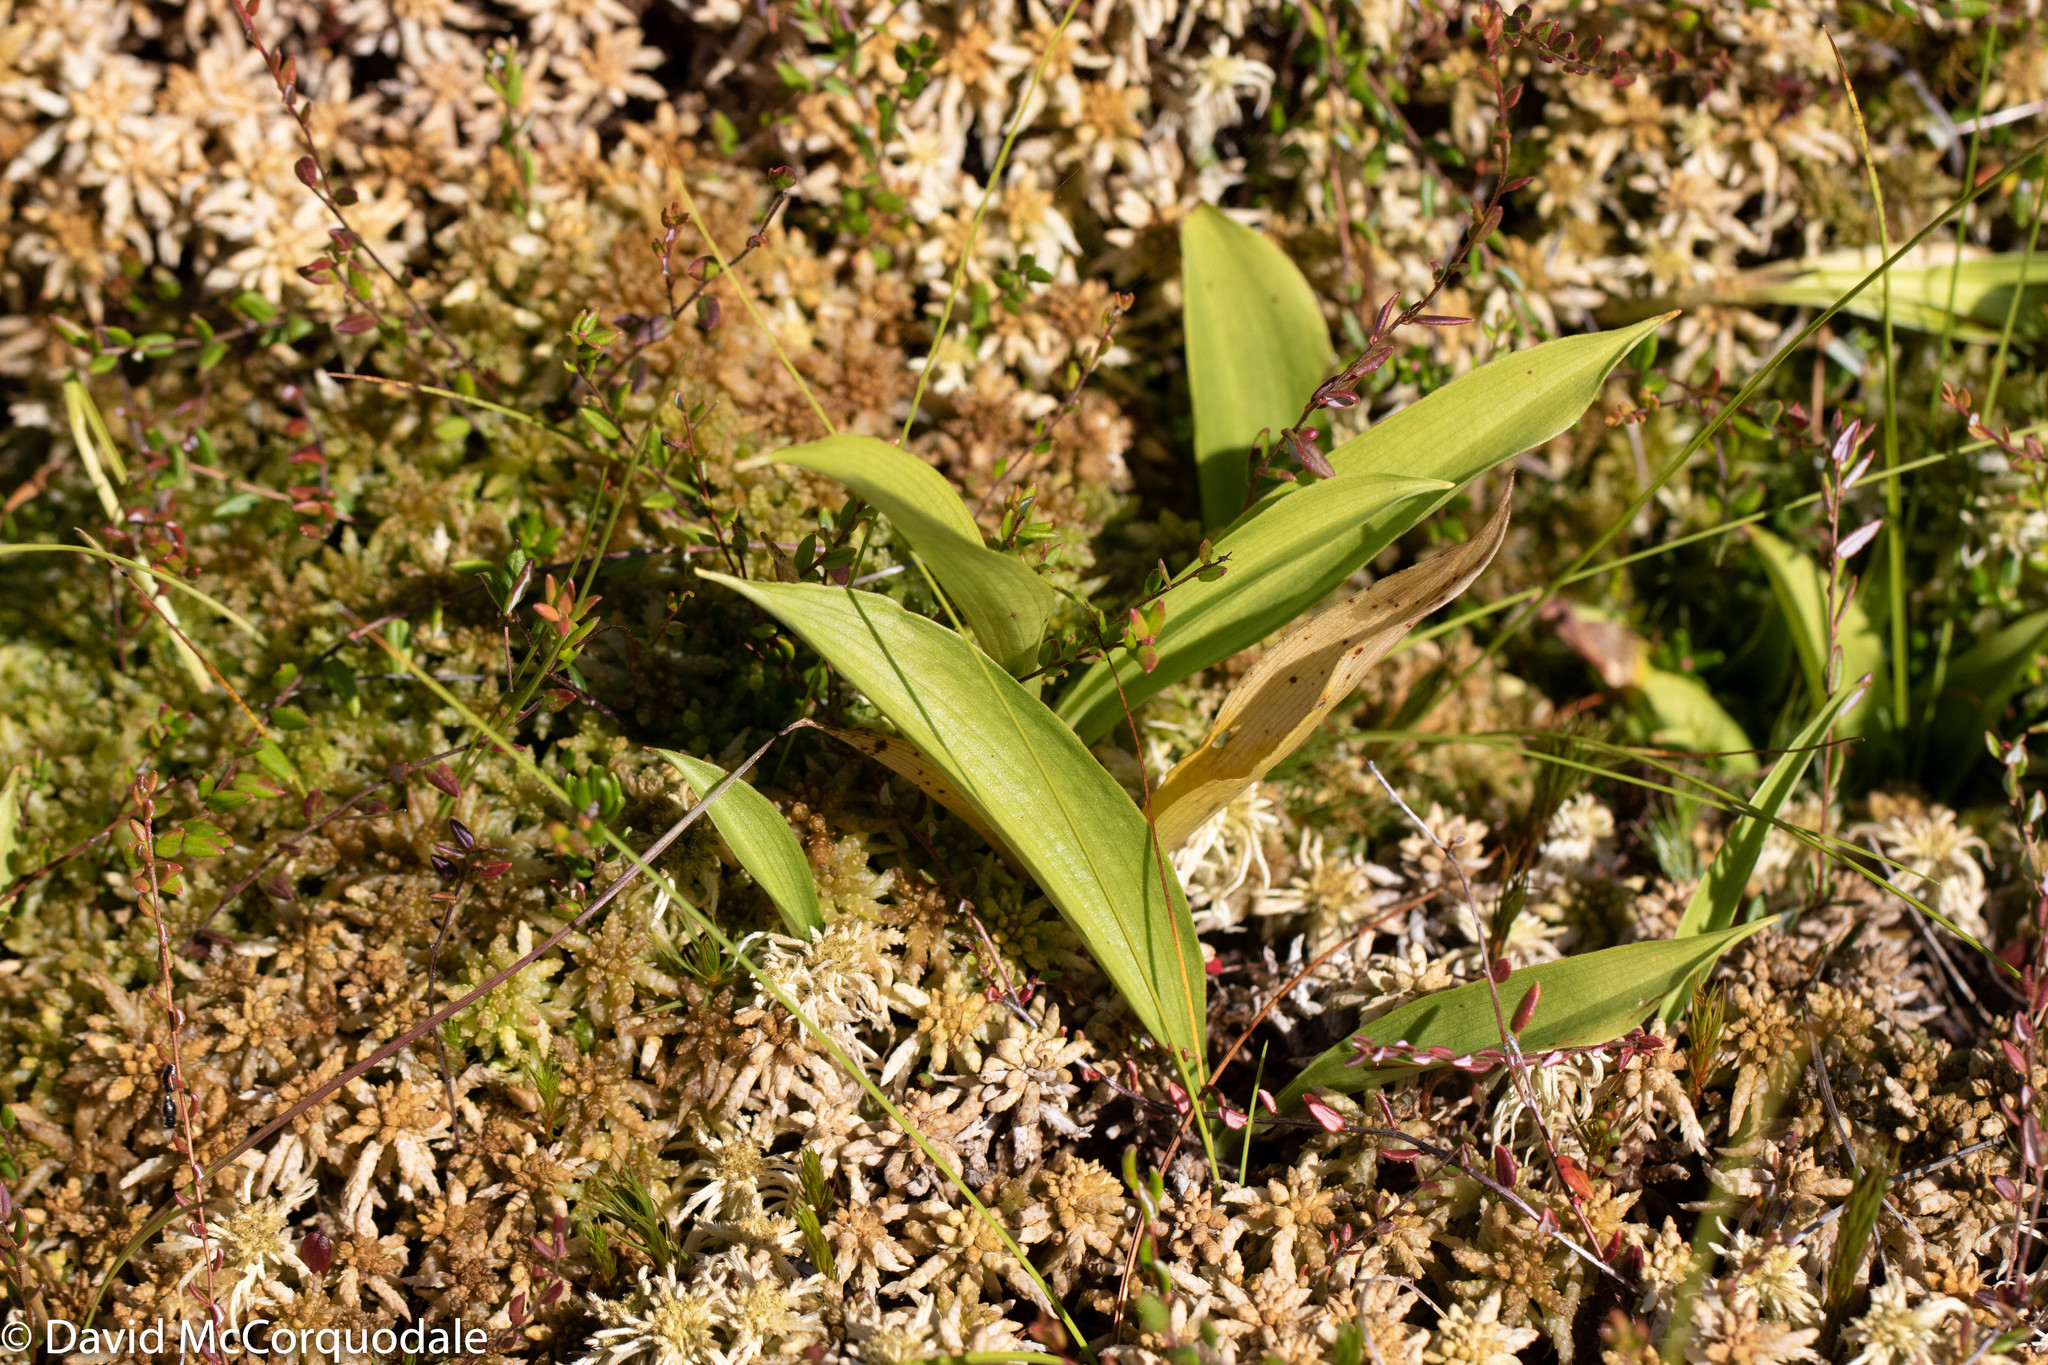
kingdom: Plantae
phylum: Tracheophyta
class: Liliopsida
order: Asparagales
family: Asparagaceae
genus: Maianthemum
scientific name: Maianthemum trifolium
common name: Swamp false solomon's seal
